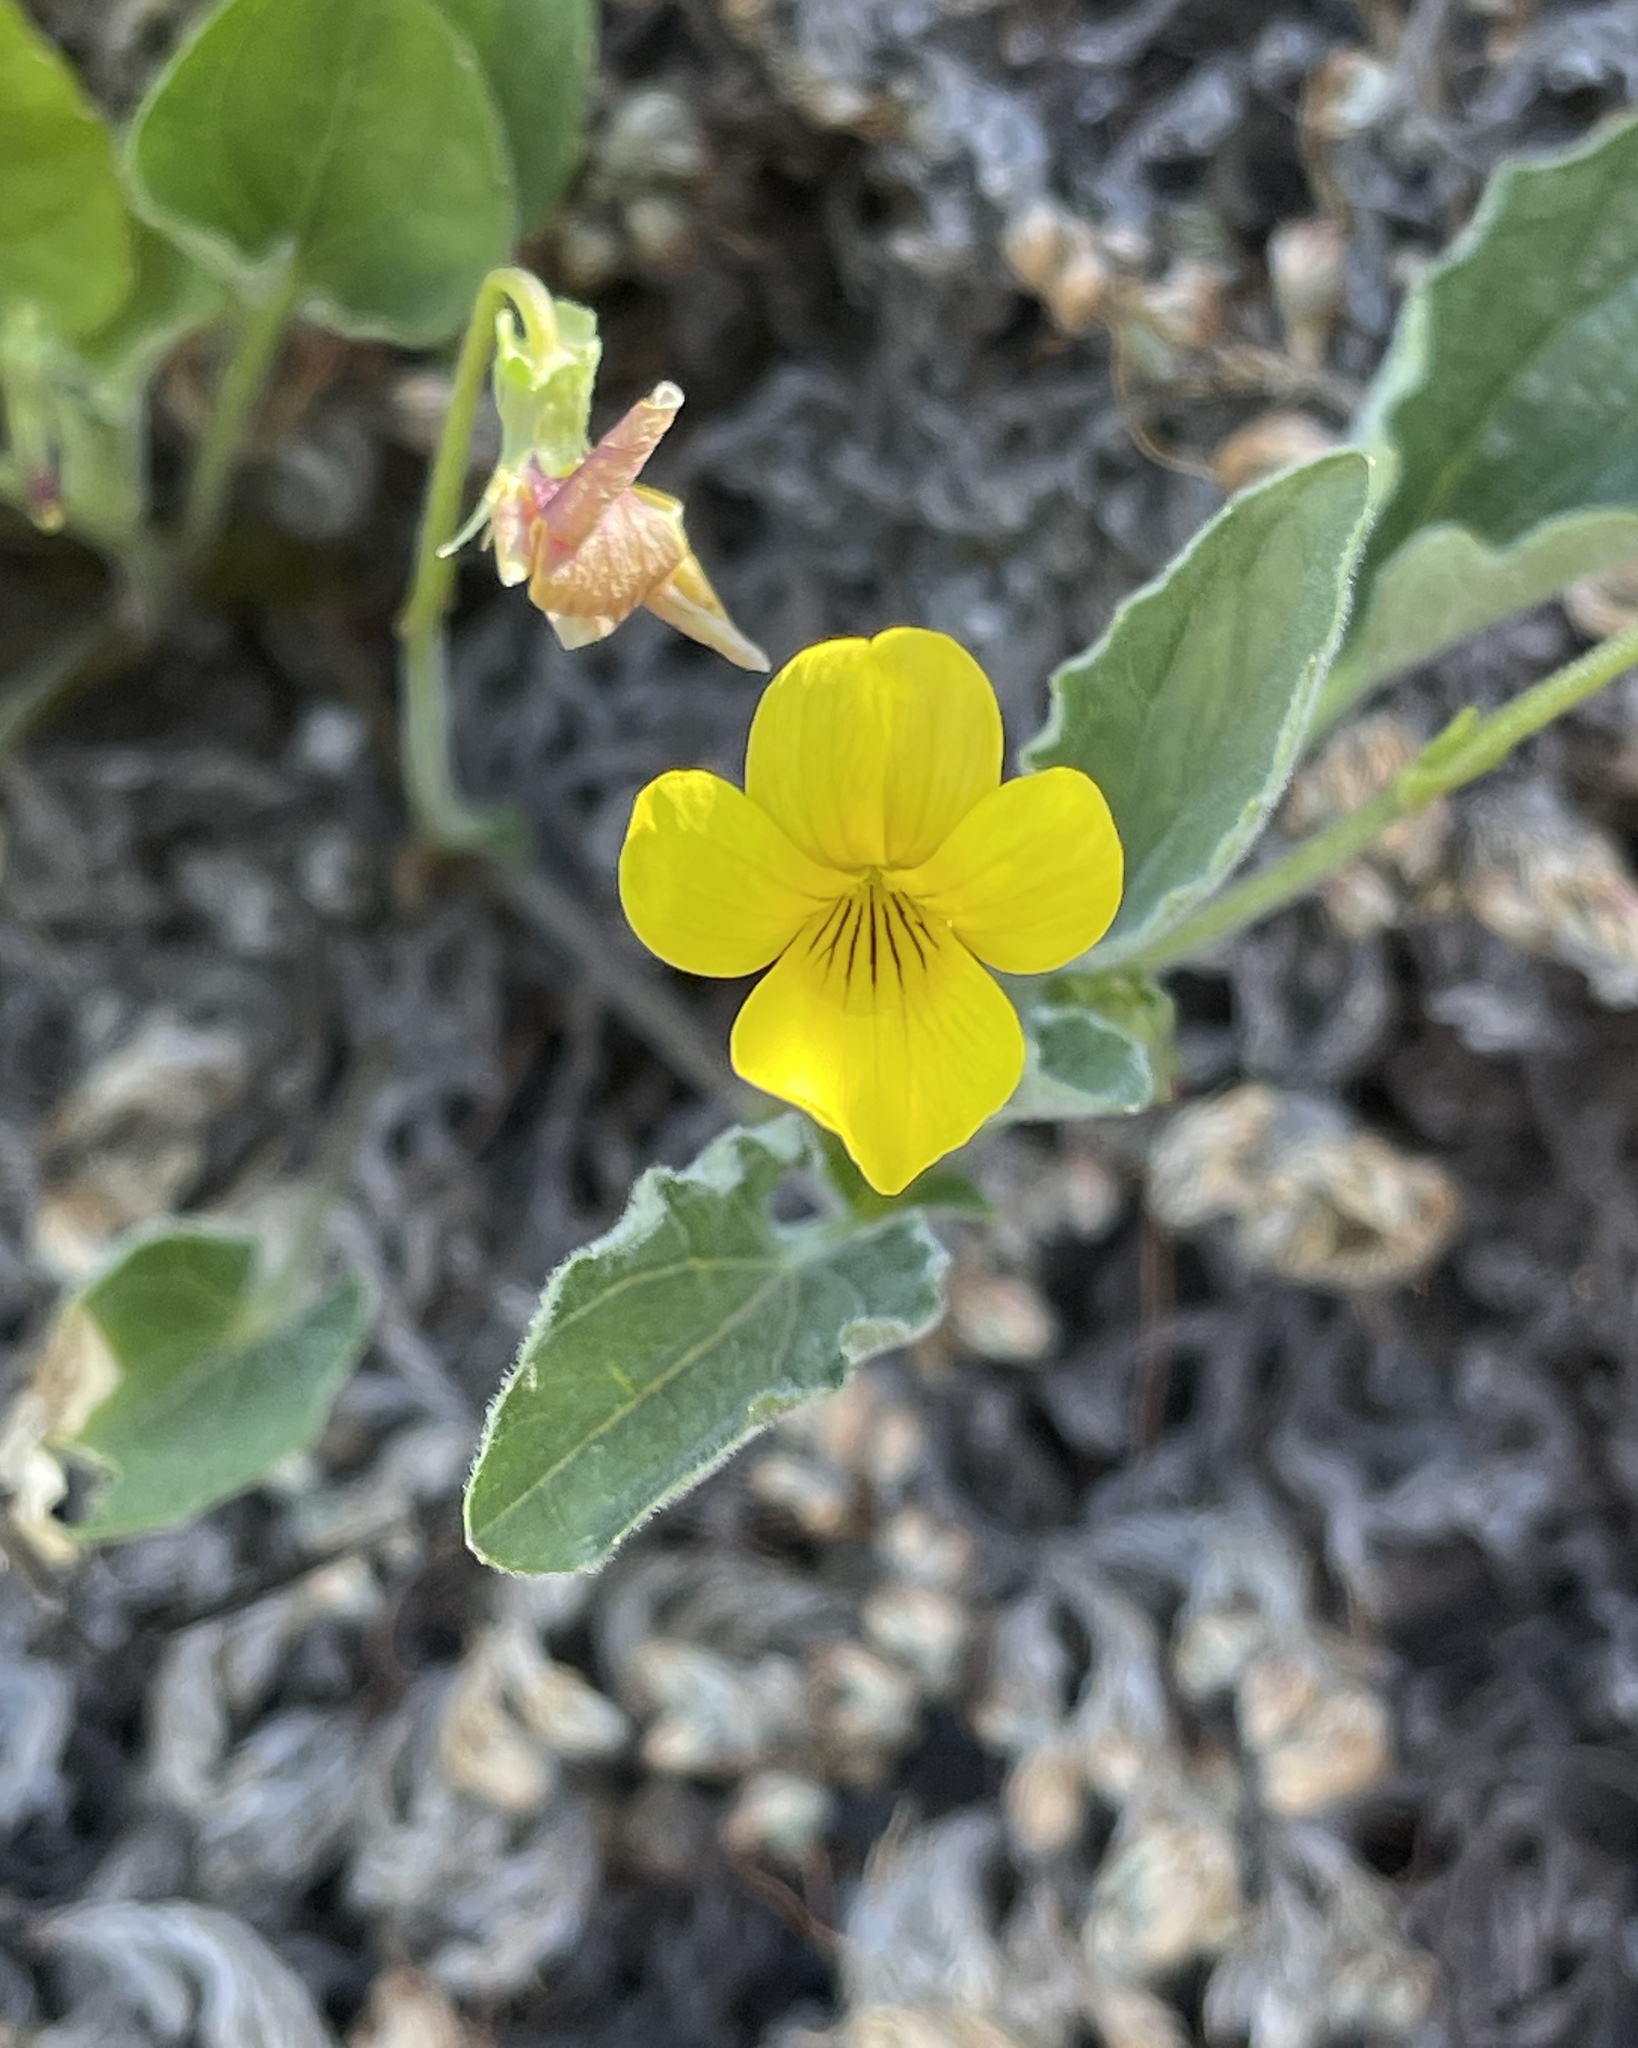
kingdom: Plantae
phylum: Tracheophyta
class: Magnoliopsida
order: Malpighiales
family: Violaceae
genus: Viola
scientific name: Viola purpurea
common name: Pine violet
